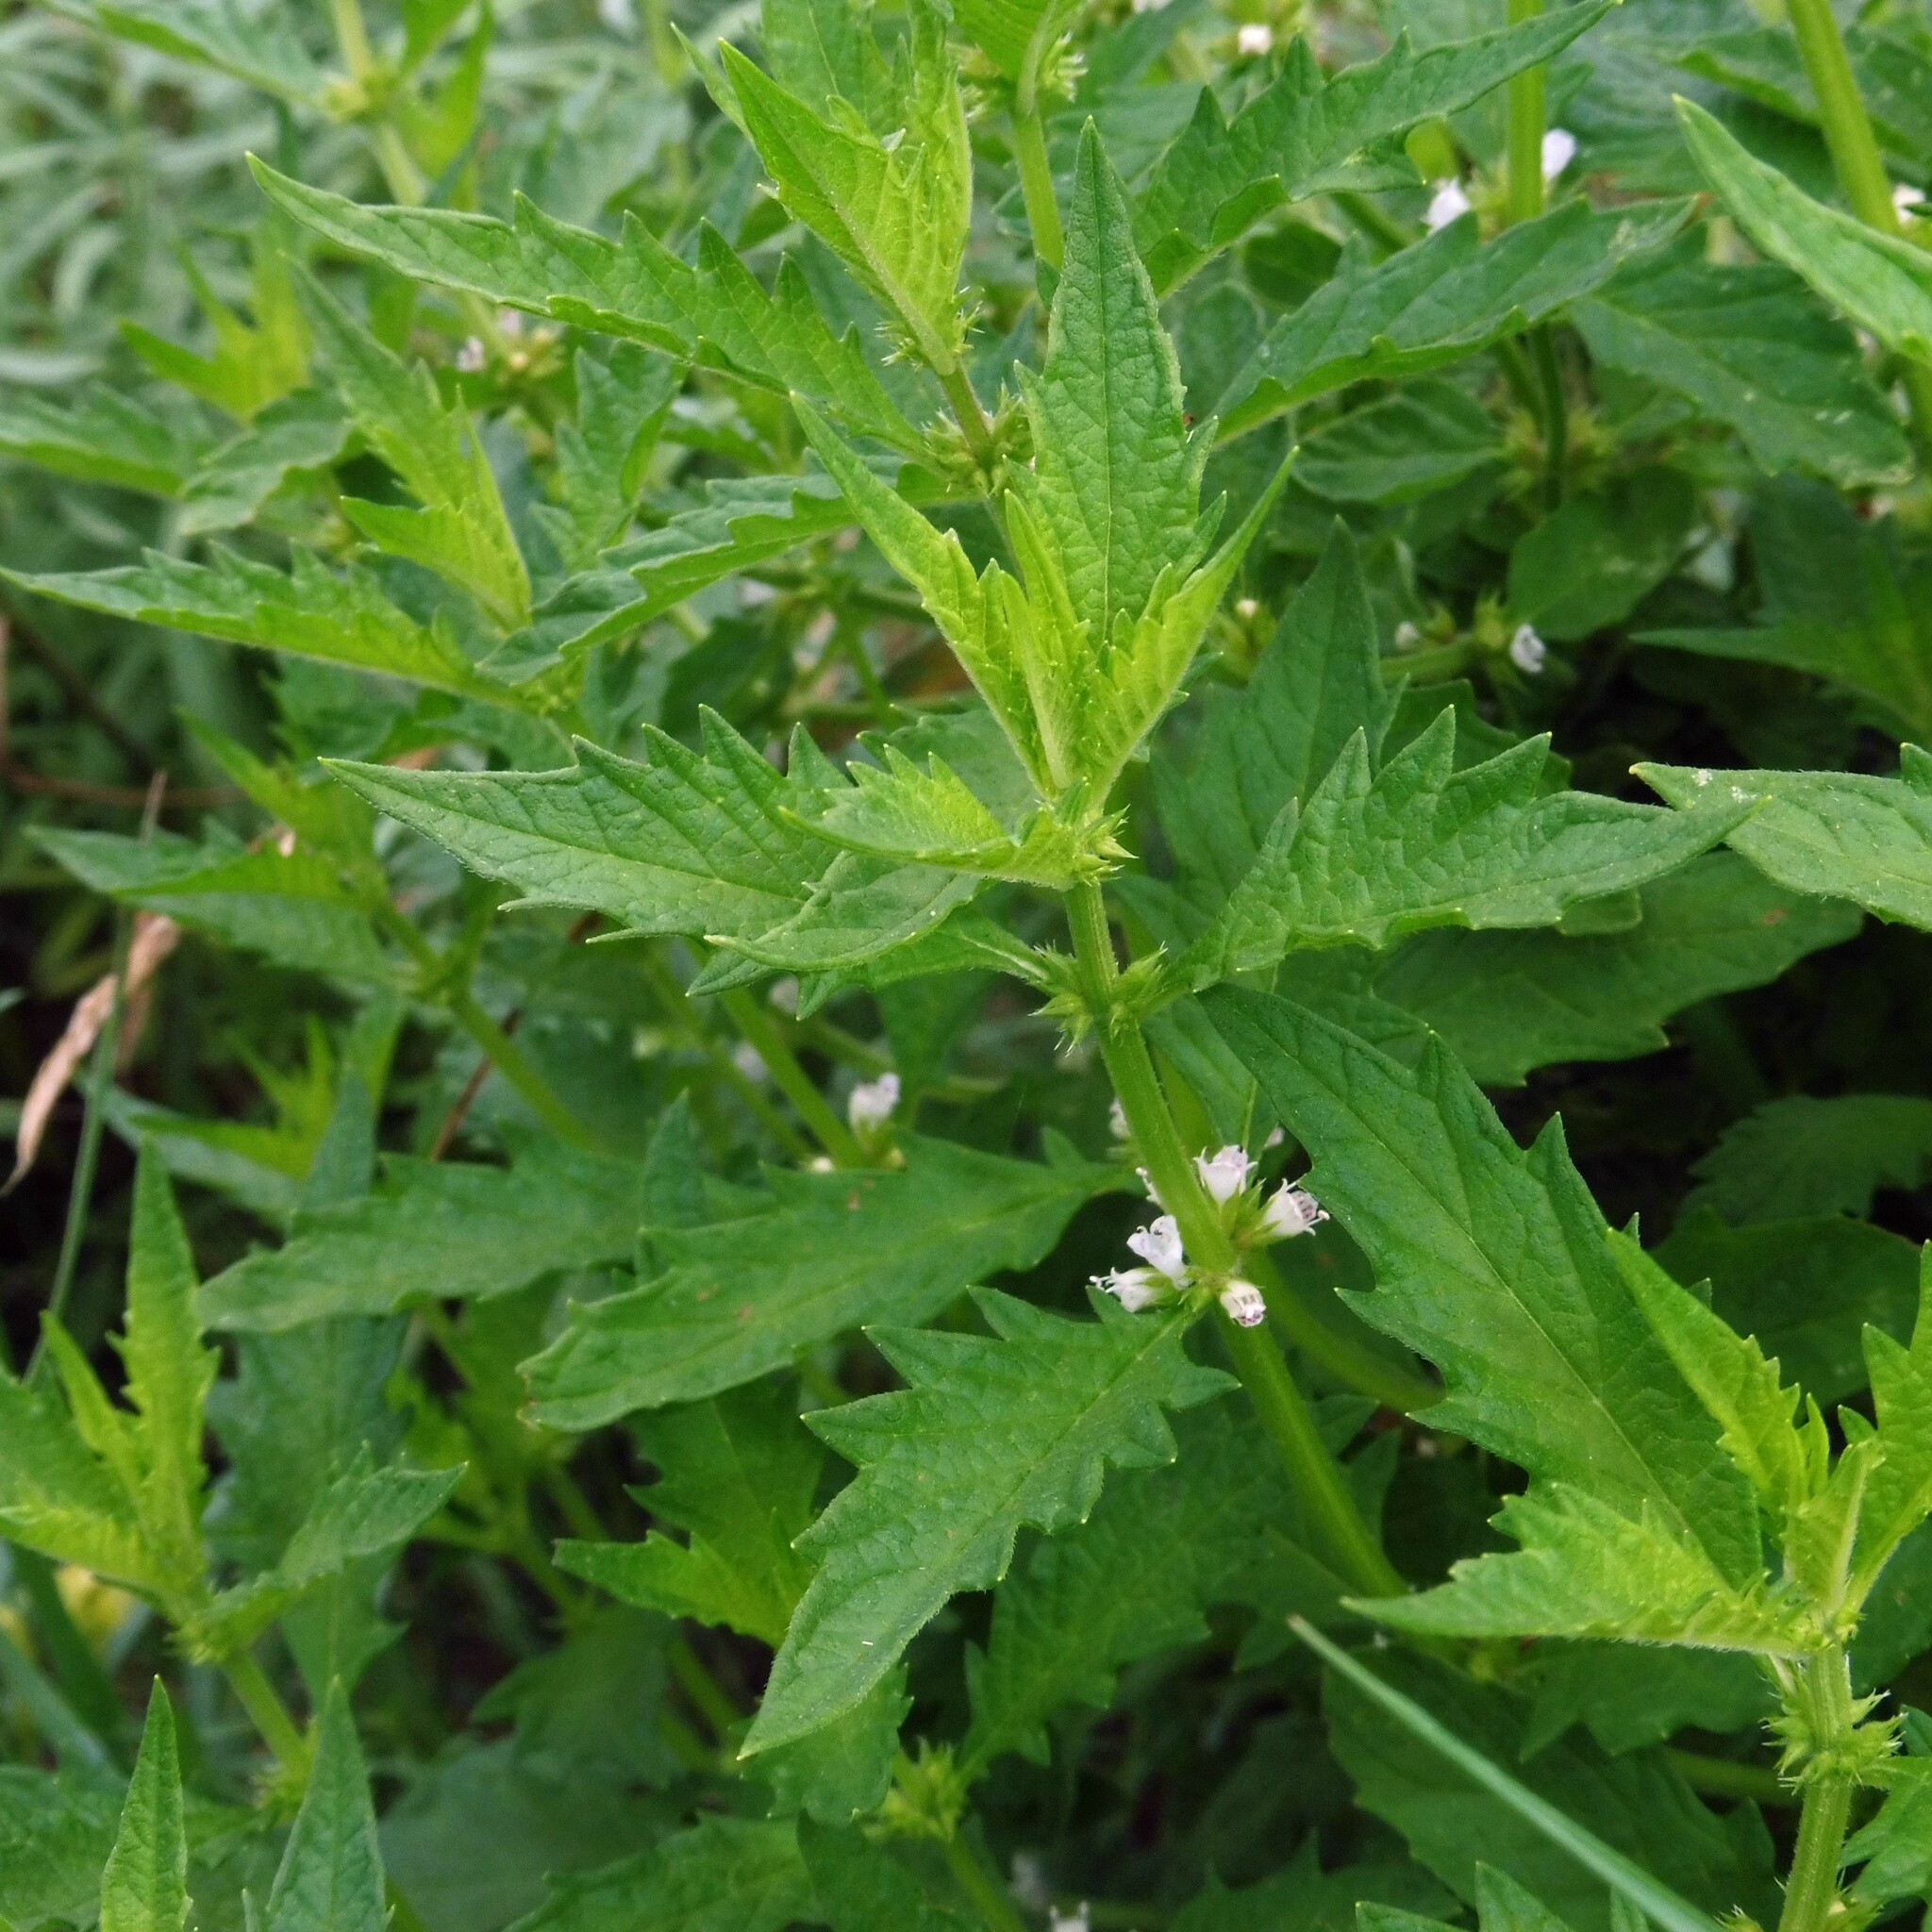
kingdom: Plantae
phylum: Tracheophyta
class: Magnoliopsida
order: Lamiales
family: Lamiaceae
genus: Lycopus
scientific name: Lycopus europaeus
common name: European bugleweed
